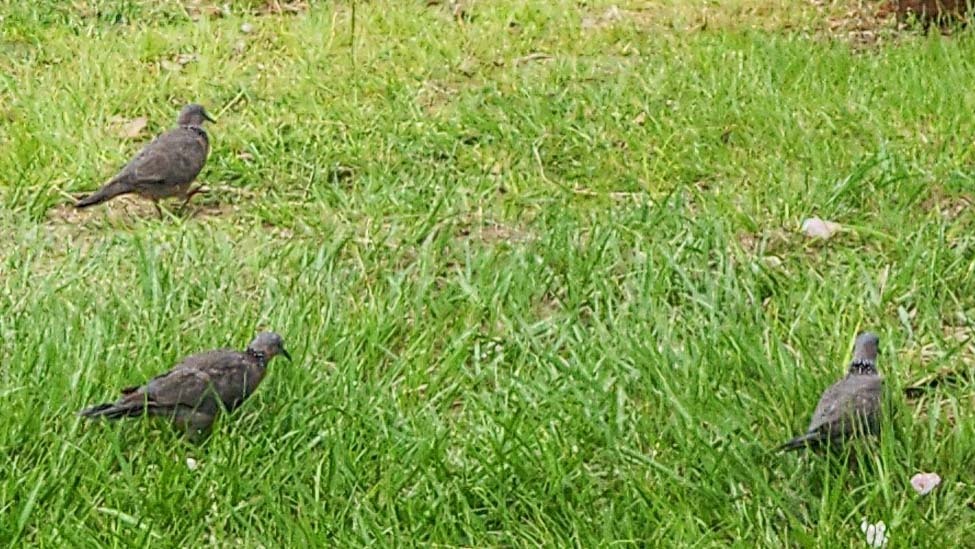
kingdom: Animalia
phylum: Chordata
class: Aves
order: Columbiformes
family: Columbidae
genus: Spilopelia
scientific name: Spilopelia chinensis
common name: Spotted dove
